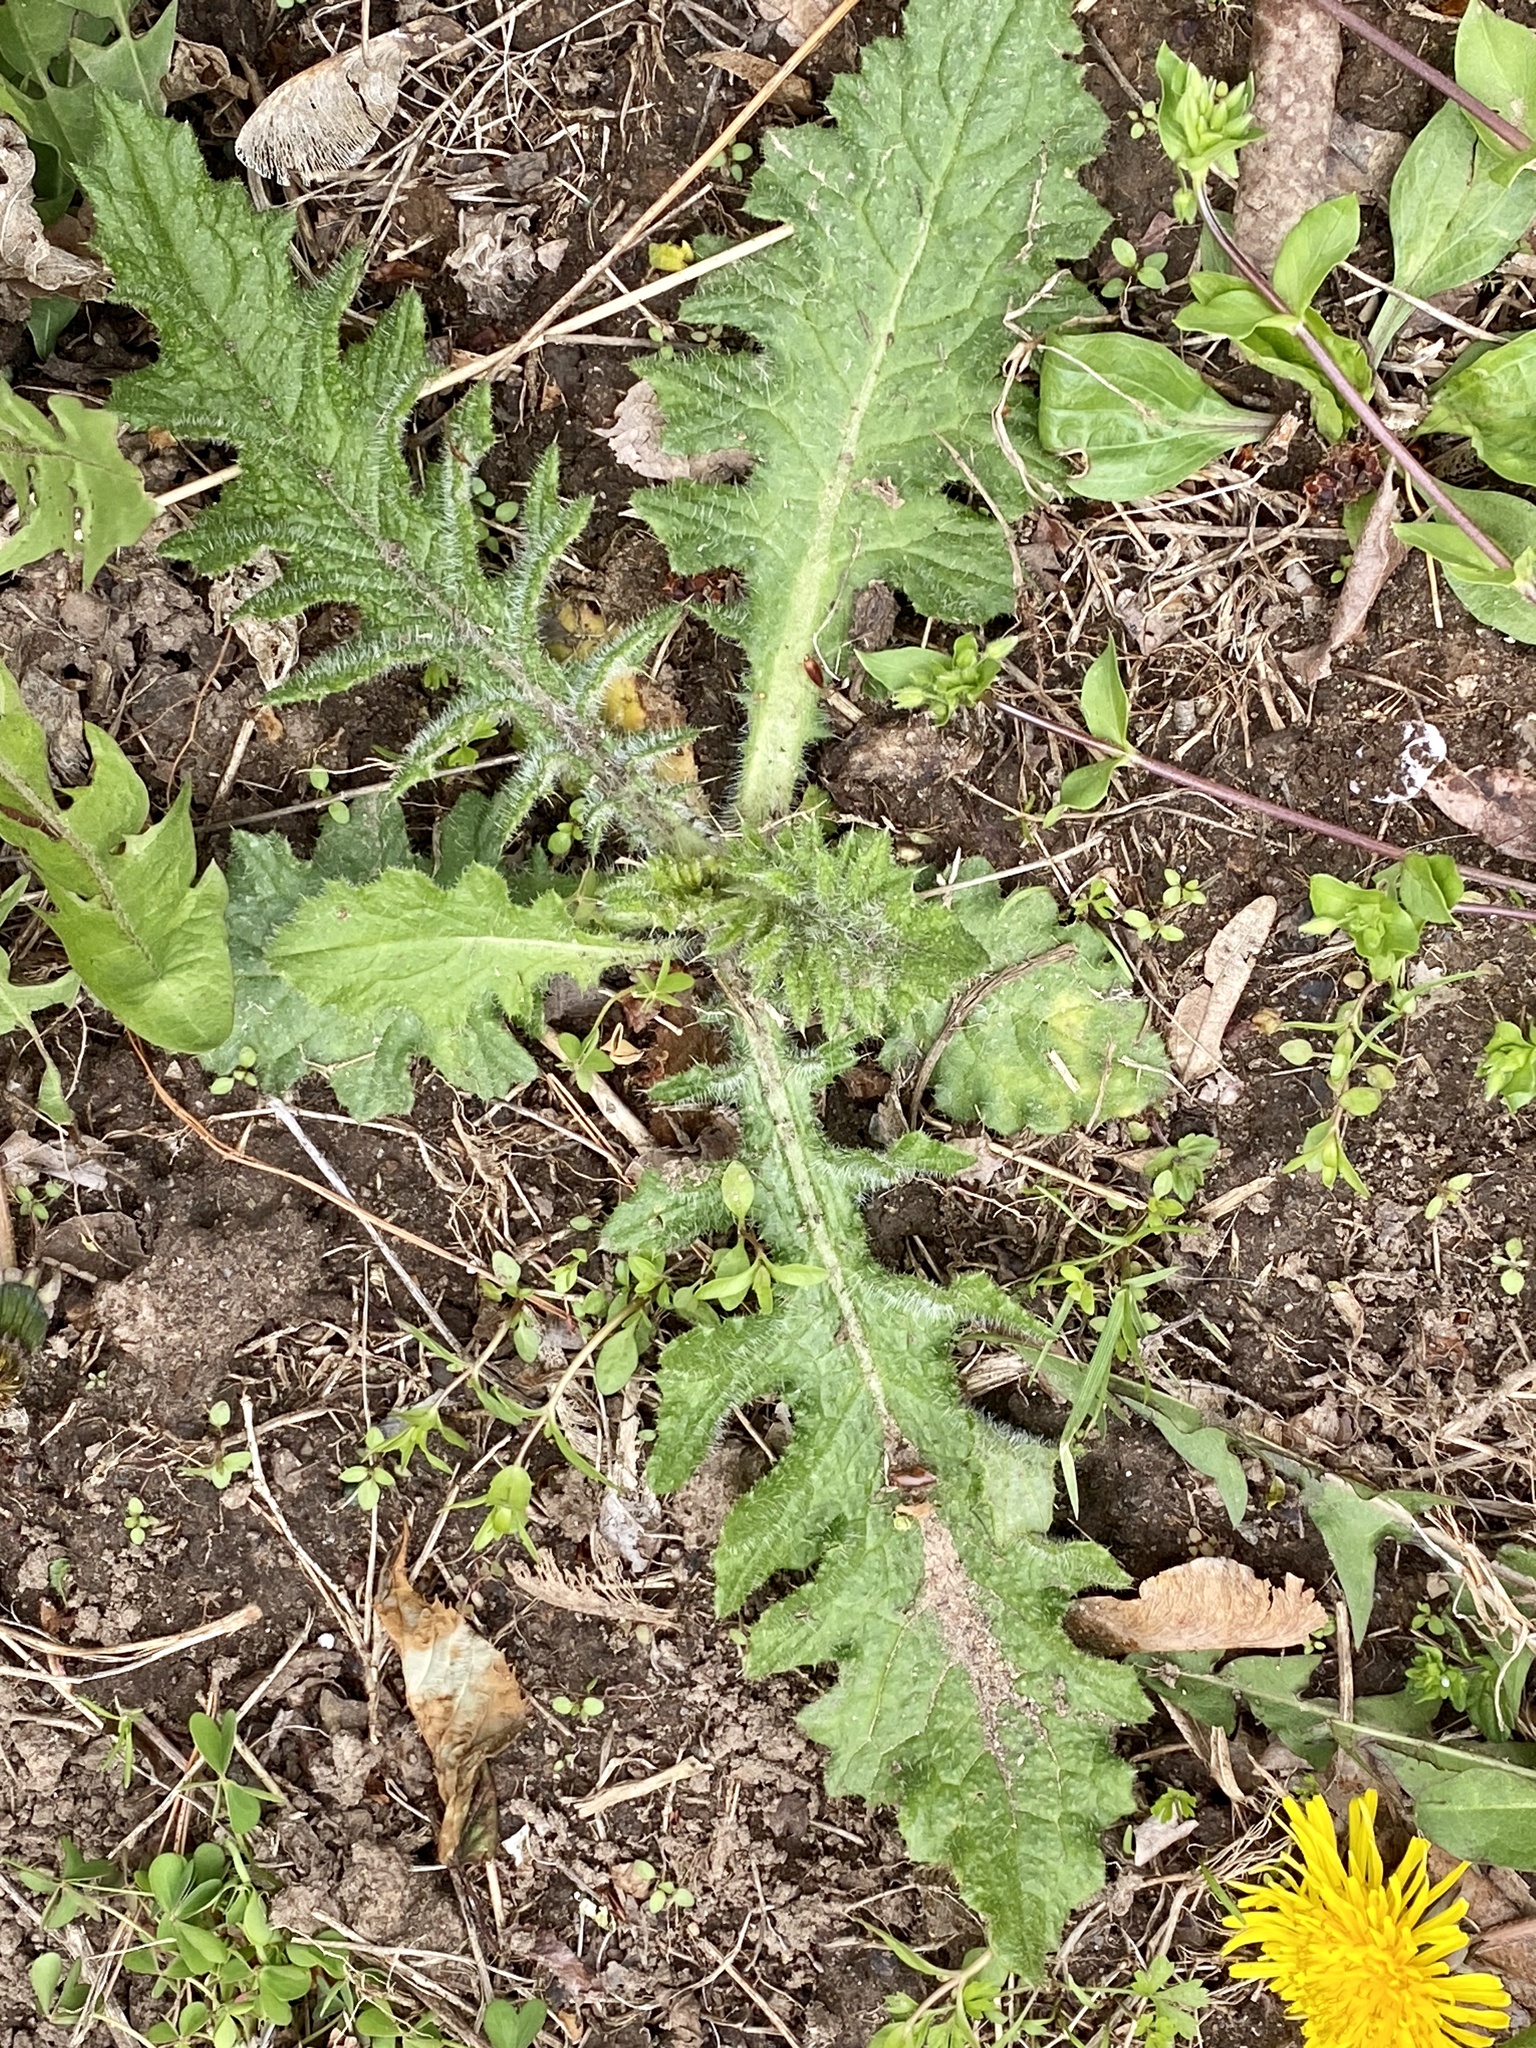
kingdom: Plantae
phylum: Tracheophyta
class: Magnoliopsida
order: Asterales
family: Asteraceae
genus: Cirsium
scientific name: Cirsium vulgare
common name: Bull thistle
